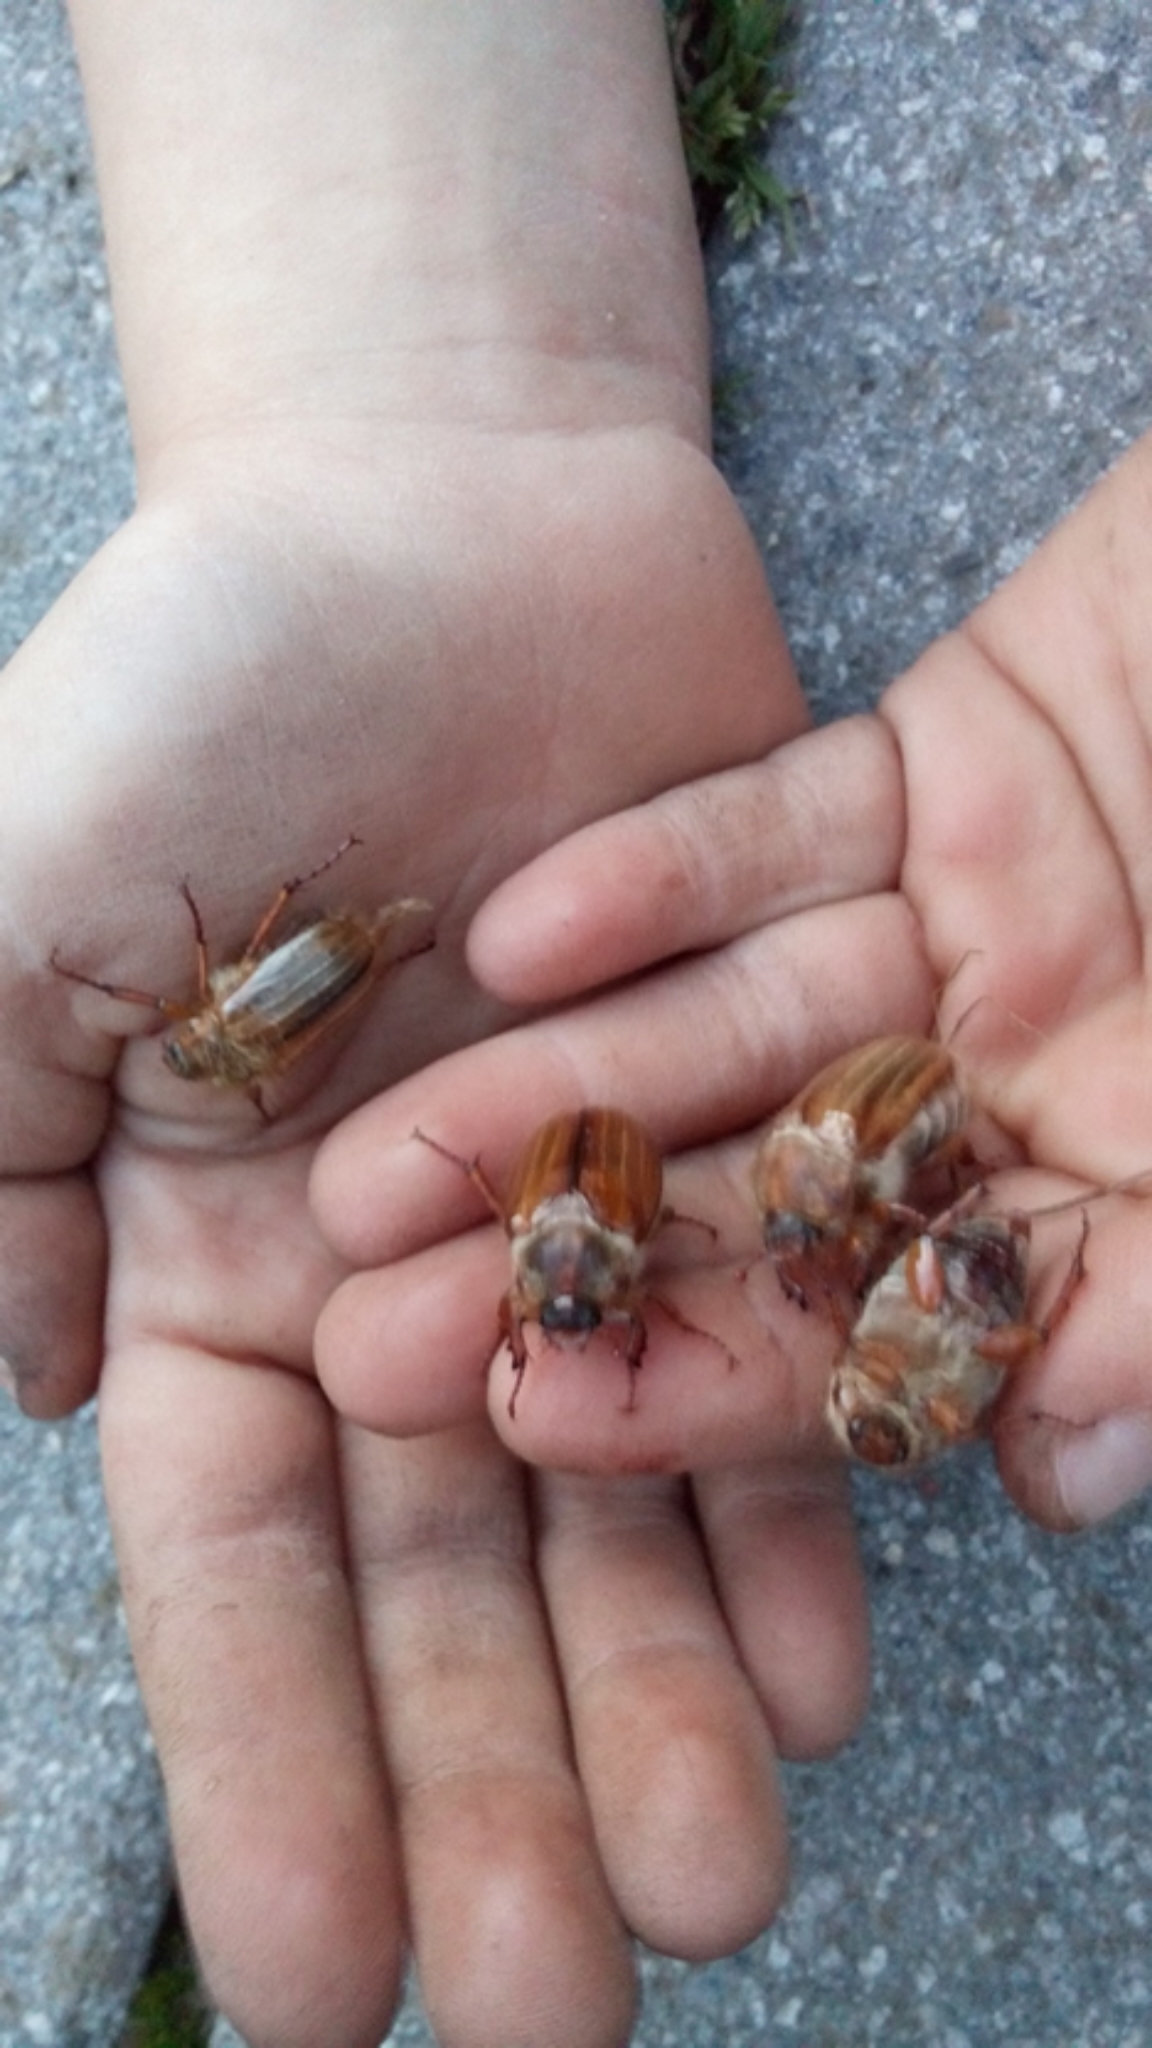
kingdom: Animalia
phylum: Arthropoda
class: Insecta
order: Coleoptera
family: Scarabaeidae
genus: Amphimallon
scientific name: Amphimallon solstitiale
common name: Summer chafer
